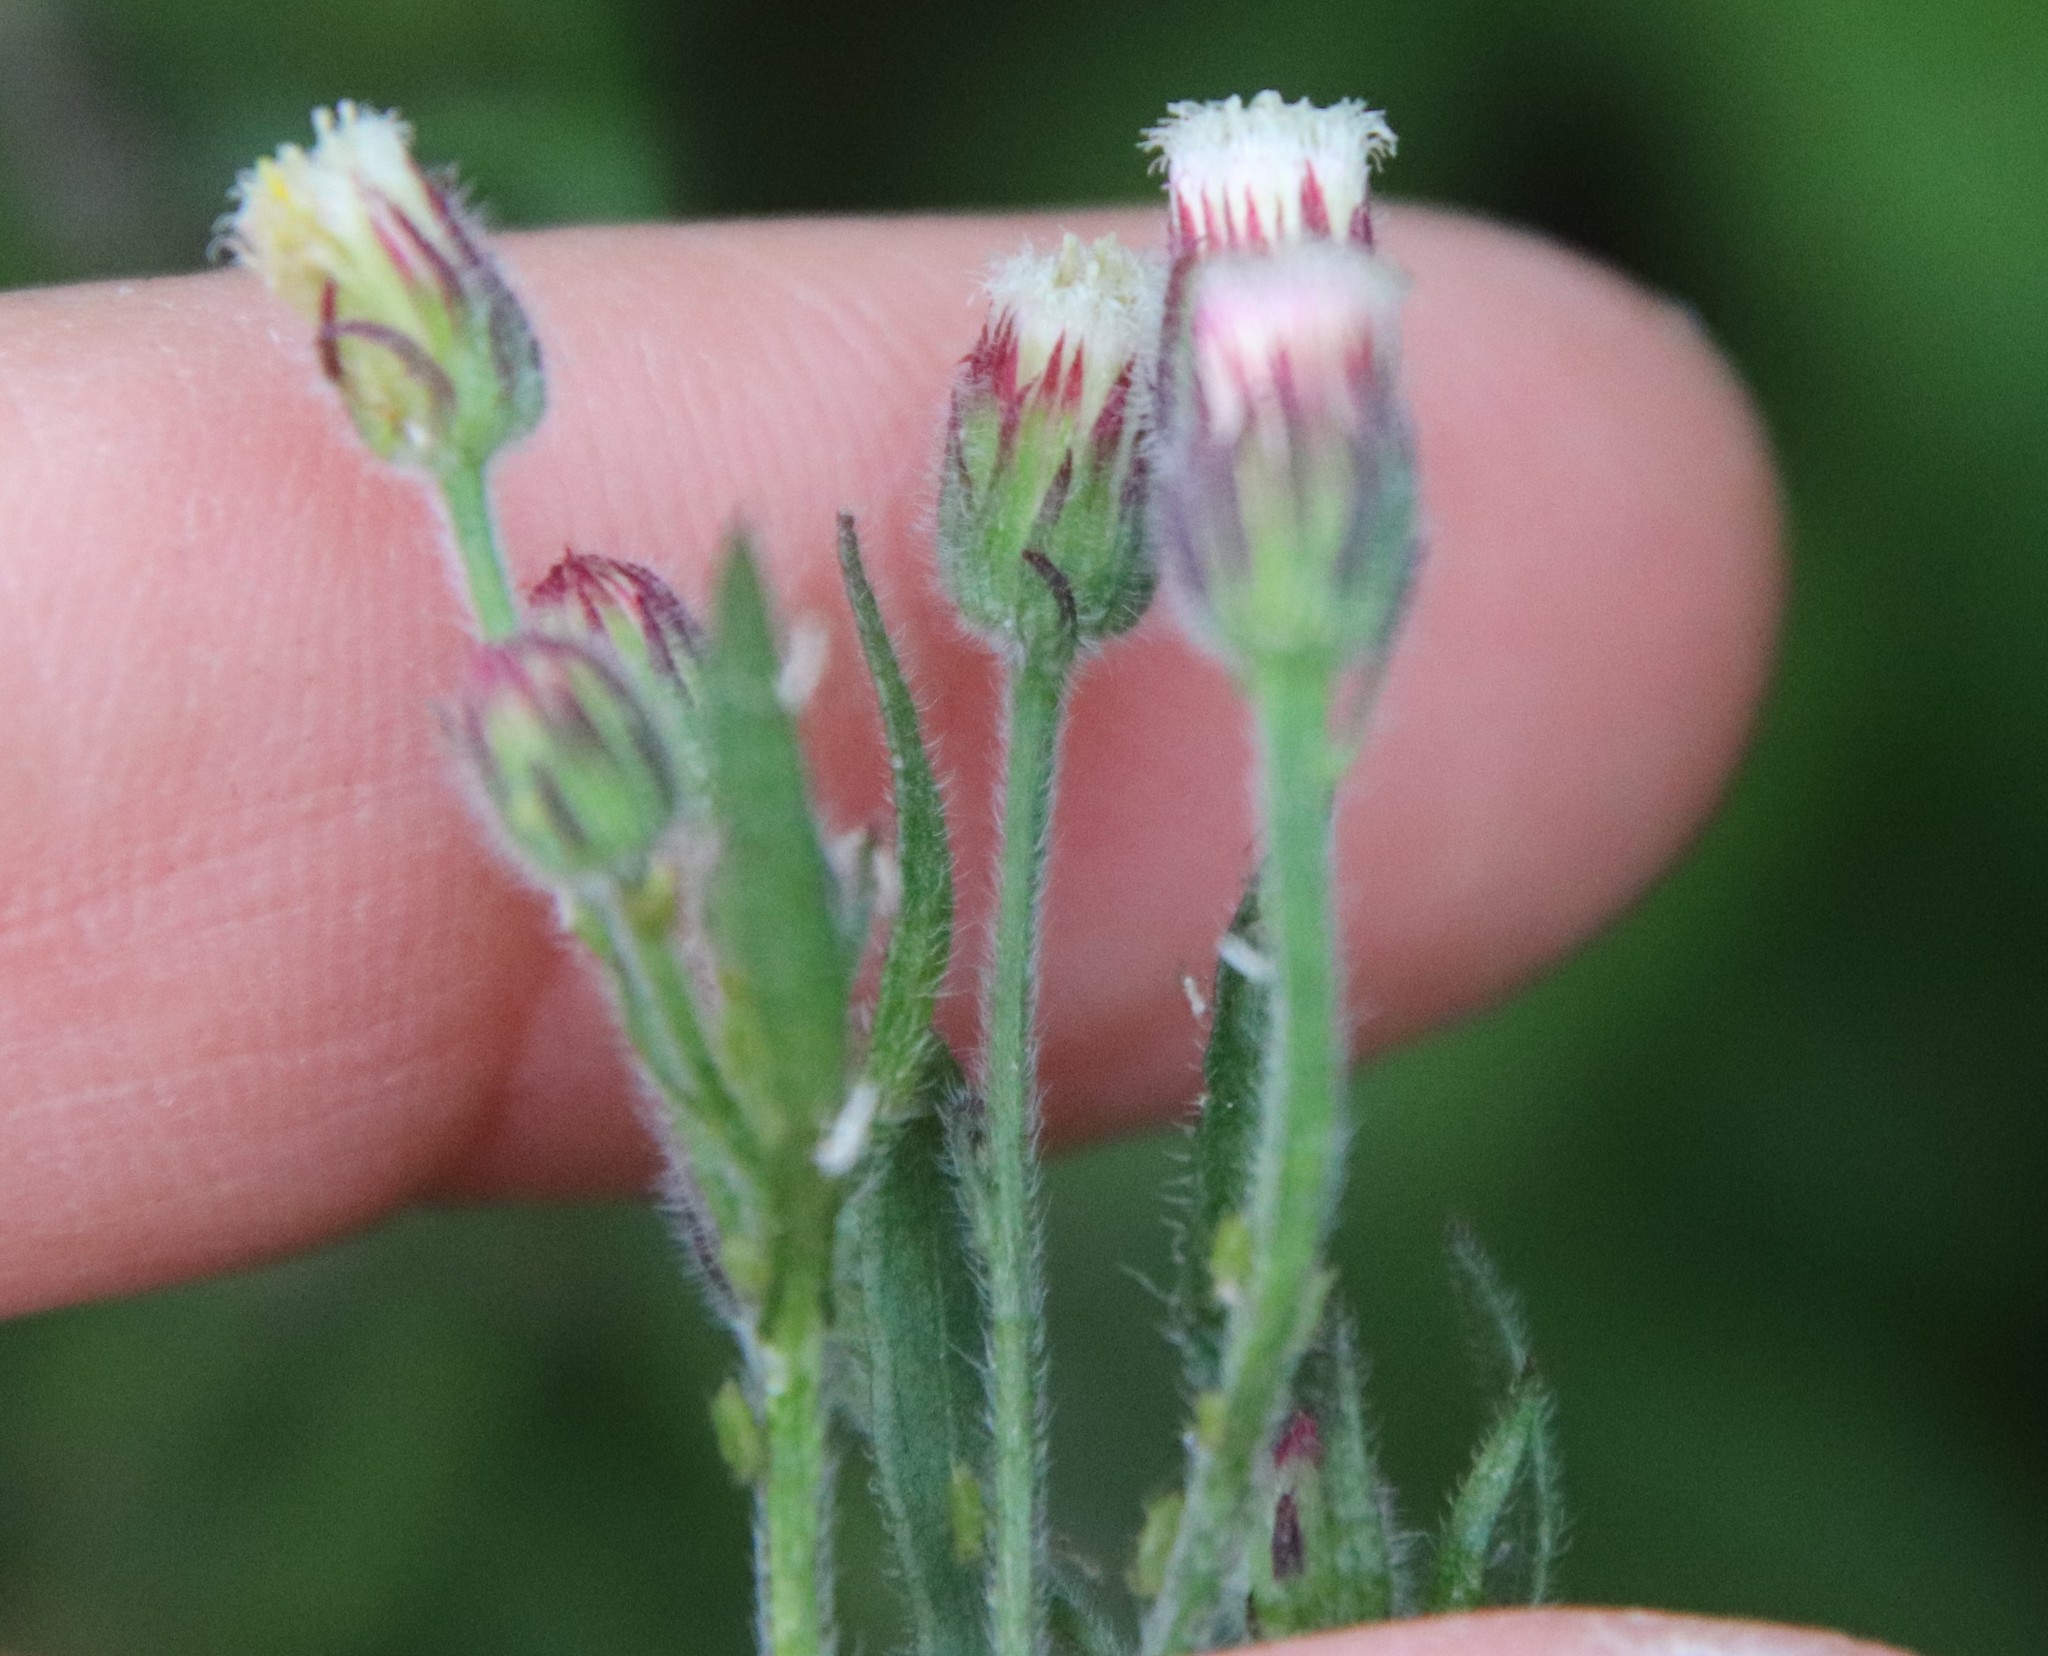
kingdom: Plantae
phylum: Tracheophyta
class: Magnoliopsida
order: Asterales
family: Asteraceae
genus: Erigeron
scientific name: Erigeron bonariensis
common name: Argentine fleabane
